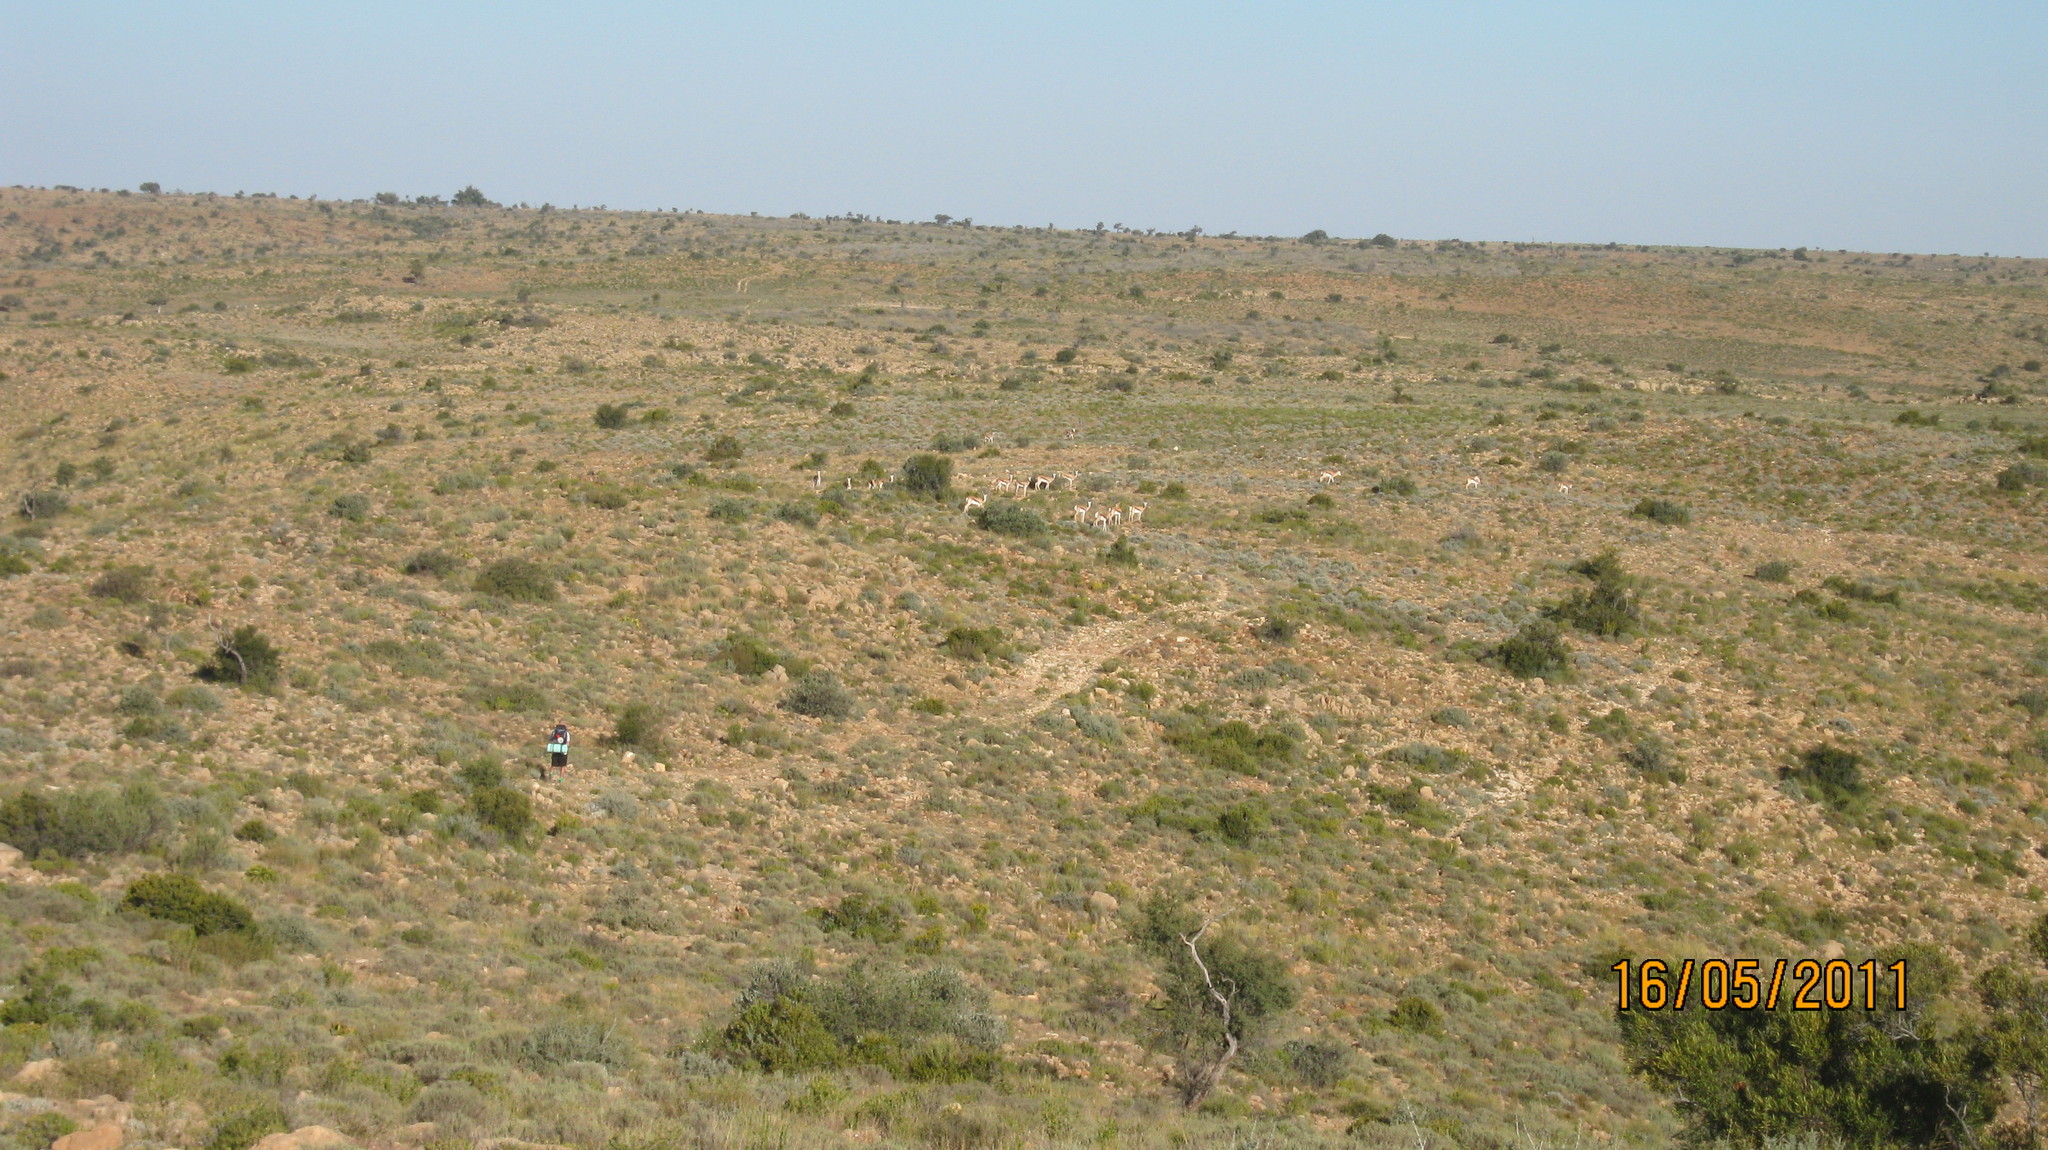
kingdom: Animalia
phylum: Chordata
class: Mammalia
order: Artiodactyla
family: Bovidae
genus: Antidorcas
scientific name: Antidorcas marsupialis
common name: Springbok
